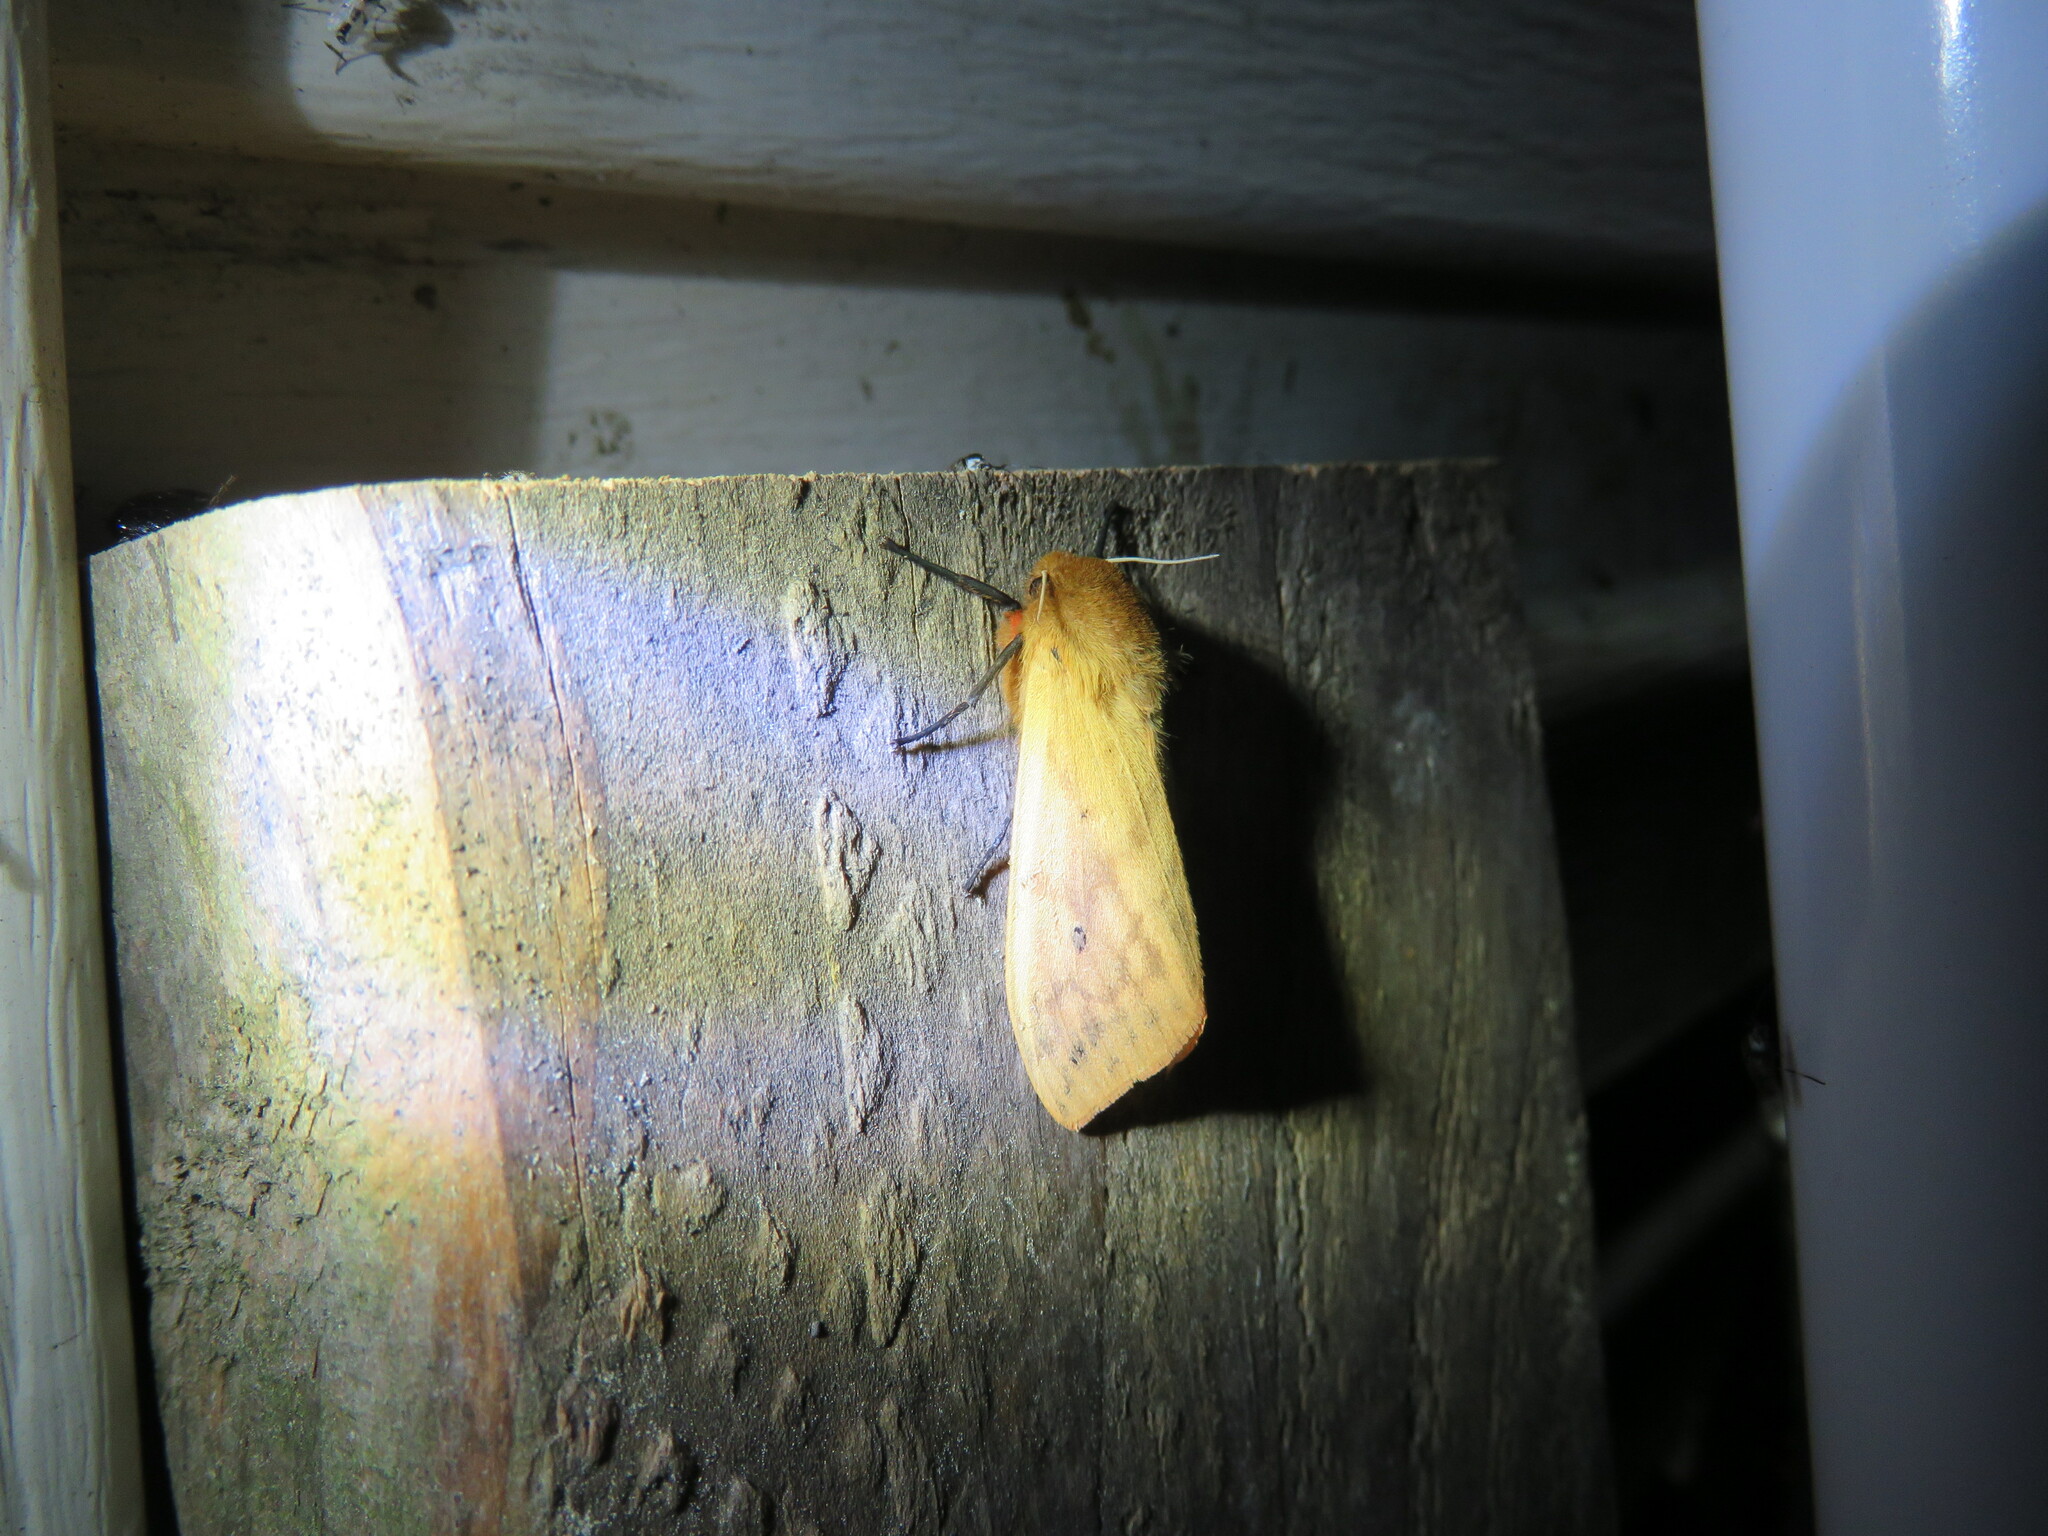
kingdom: Animalia
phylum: Arthropoda
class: Insecta
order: Lepidoptera
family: Erebidae
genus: Pyrrharctia
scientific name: Pyrrharctia isabella
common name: Isabella tiger moth
